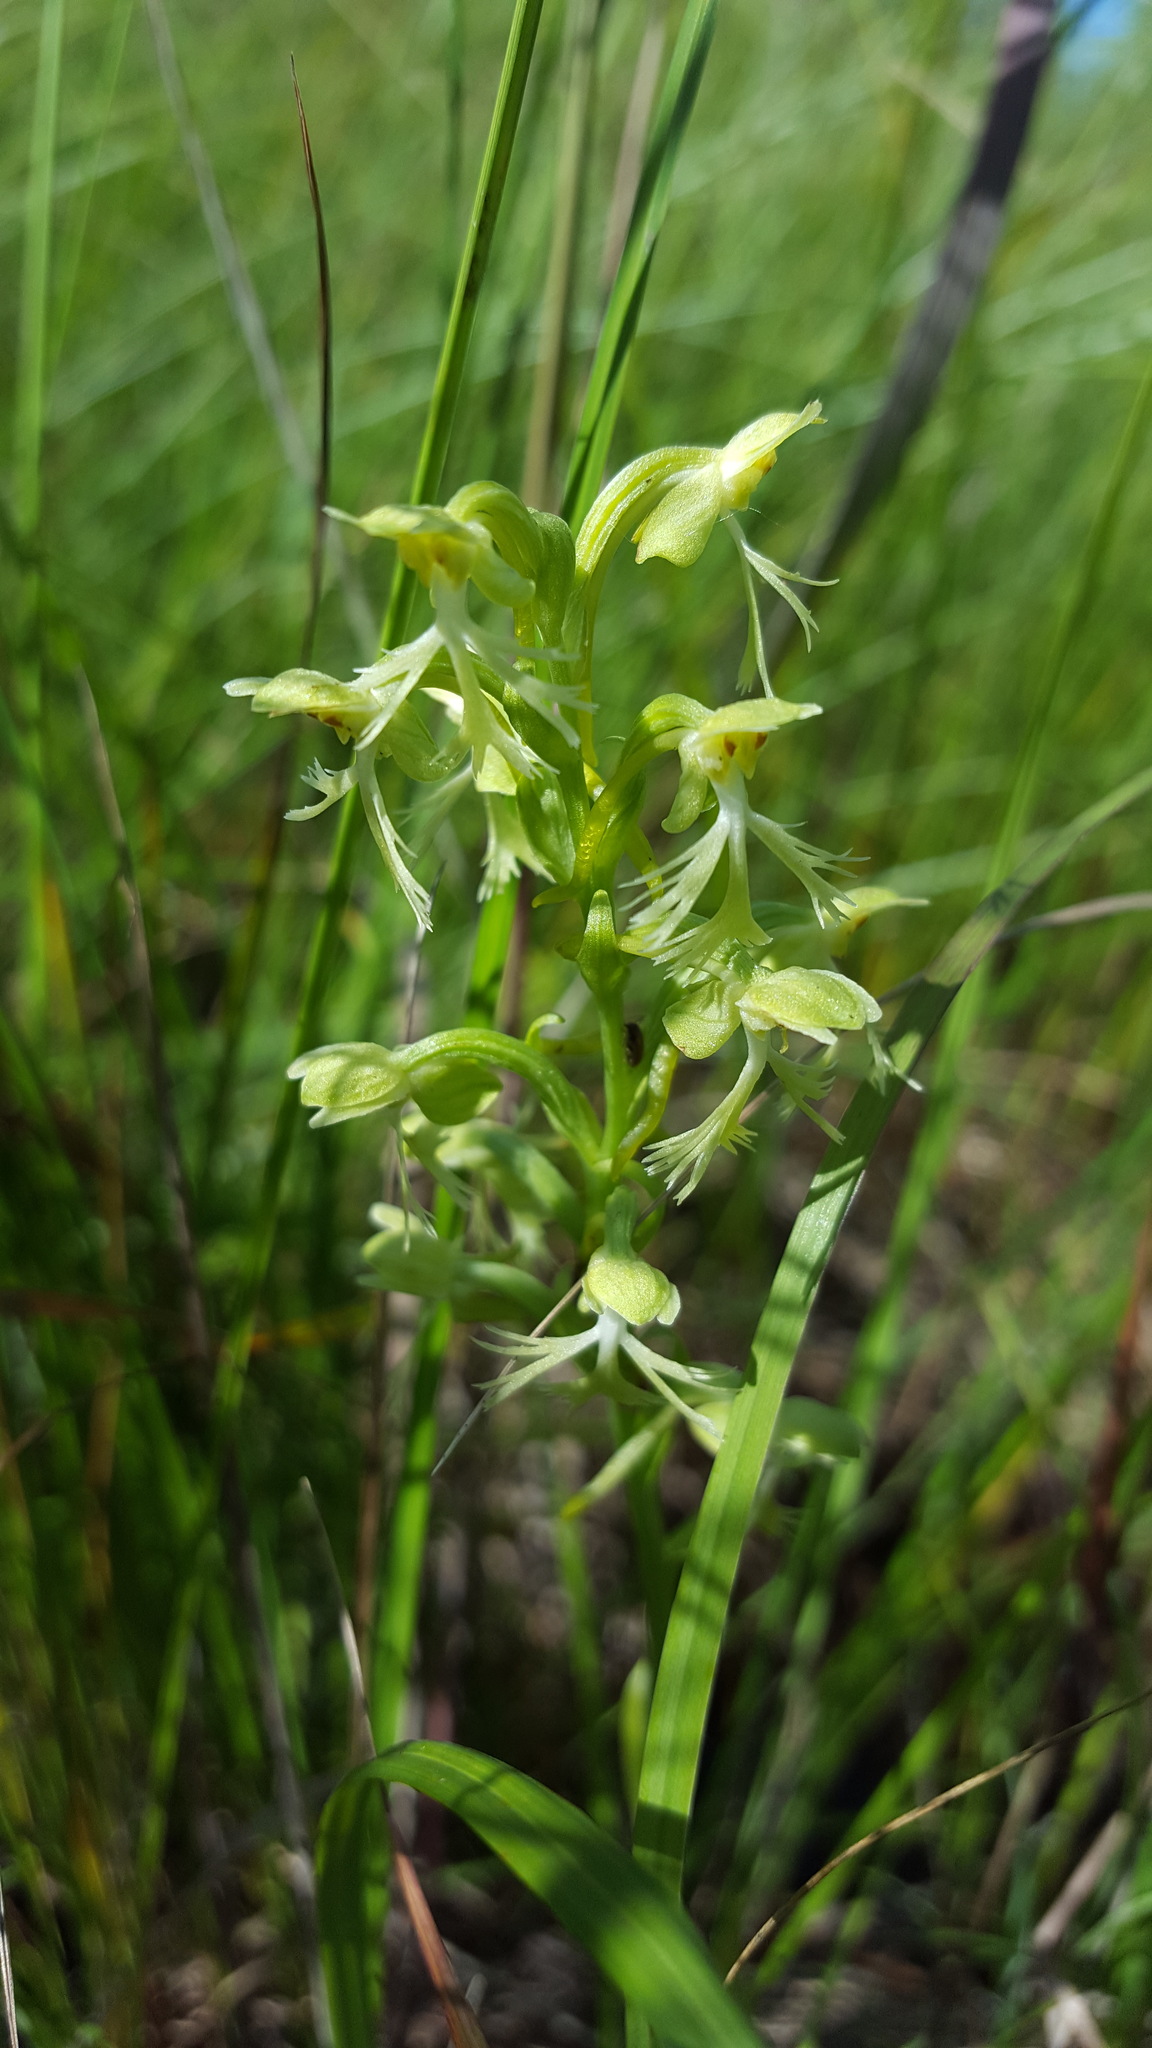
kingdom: Plantae
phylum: Tracheophyta
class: Liliopsida
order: Asparagales
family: Orchidaceae
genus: Platanthera
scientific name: Platanthera lacera
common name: Green fringed orchid
